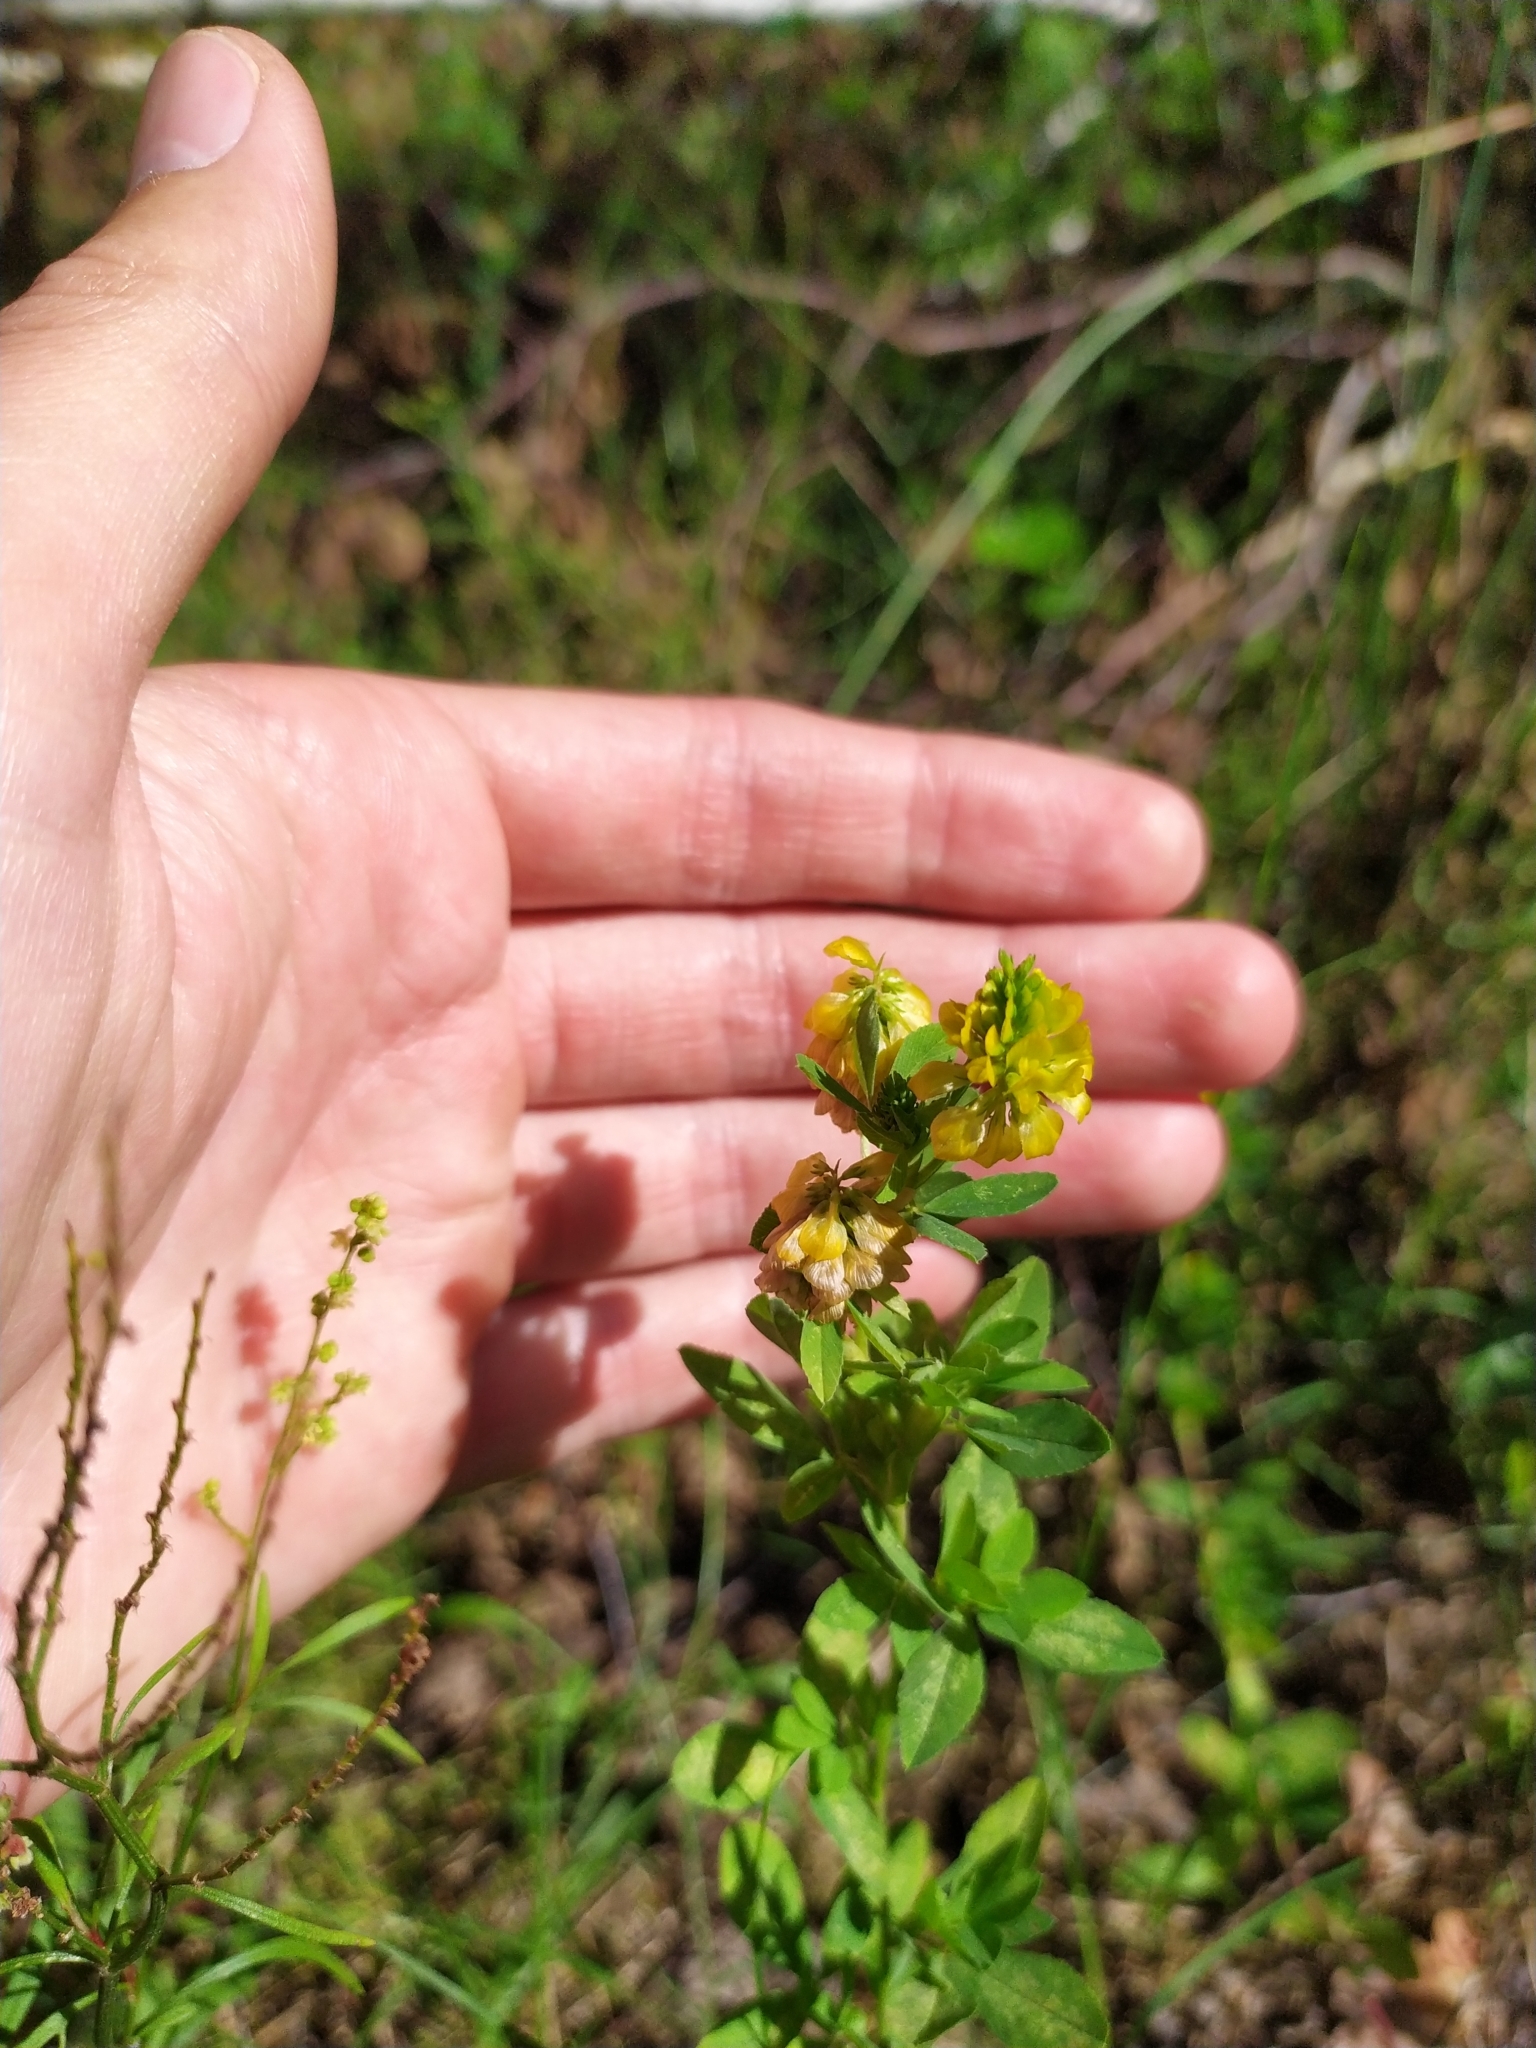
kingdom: Plantae
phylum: Tracheophyta
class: Magnoliopsida
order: Fabales
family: Fabaceae
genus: Trifolium
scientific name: Trifolium aureum
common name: Golden clover
